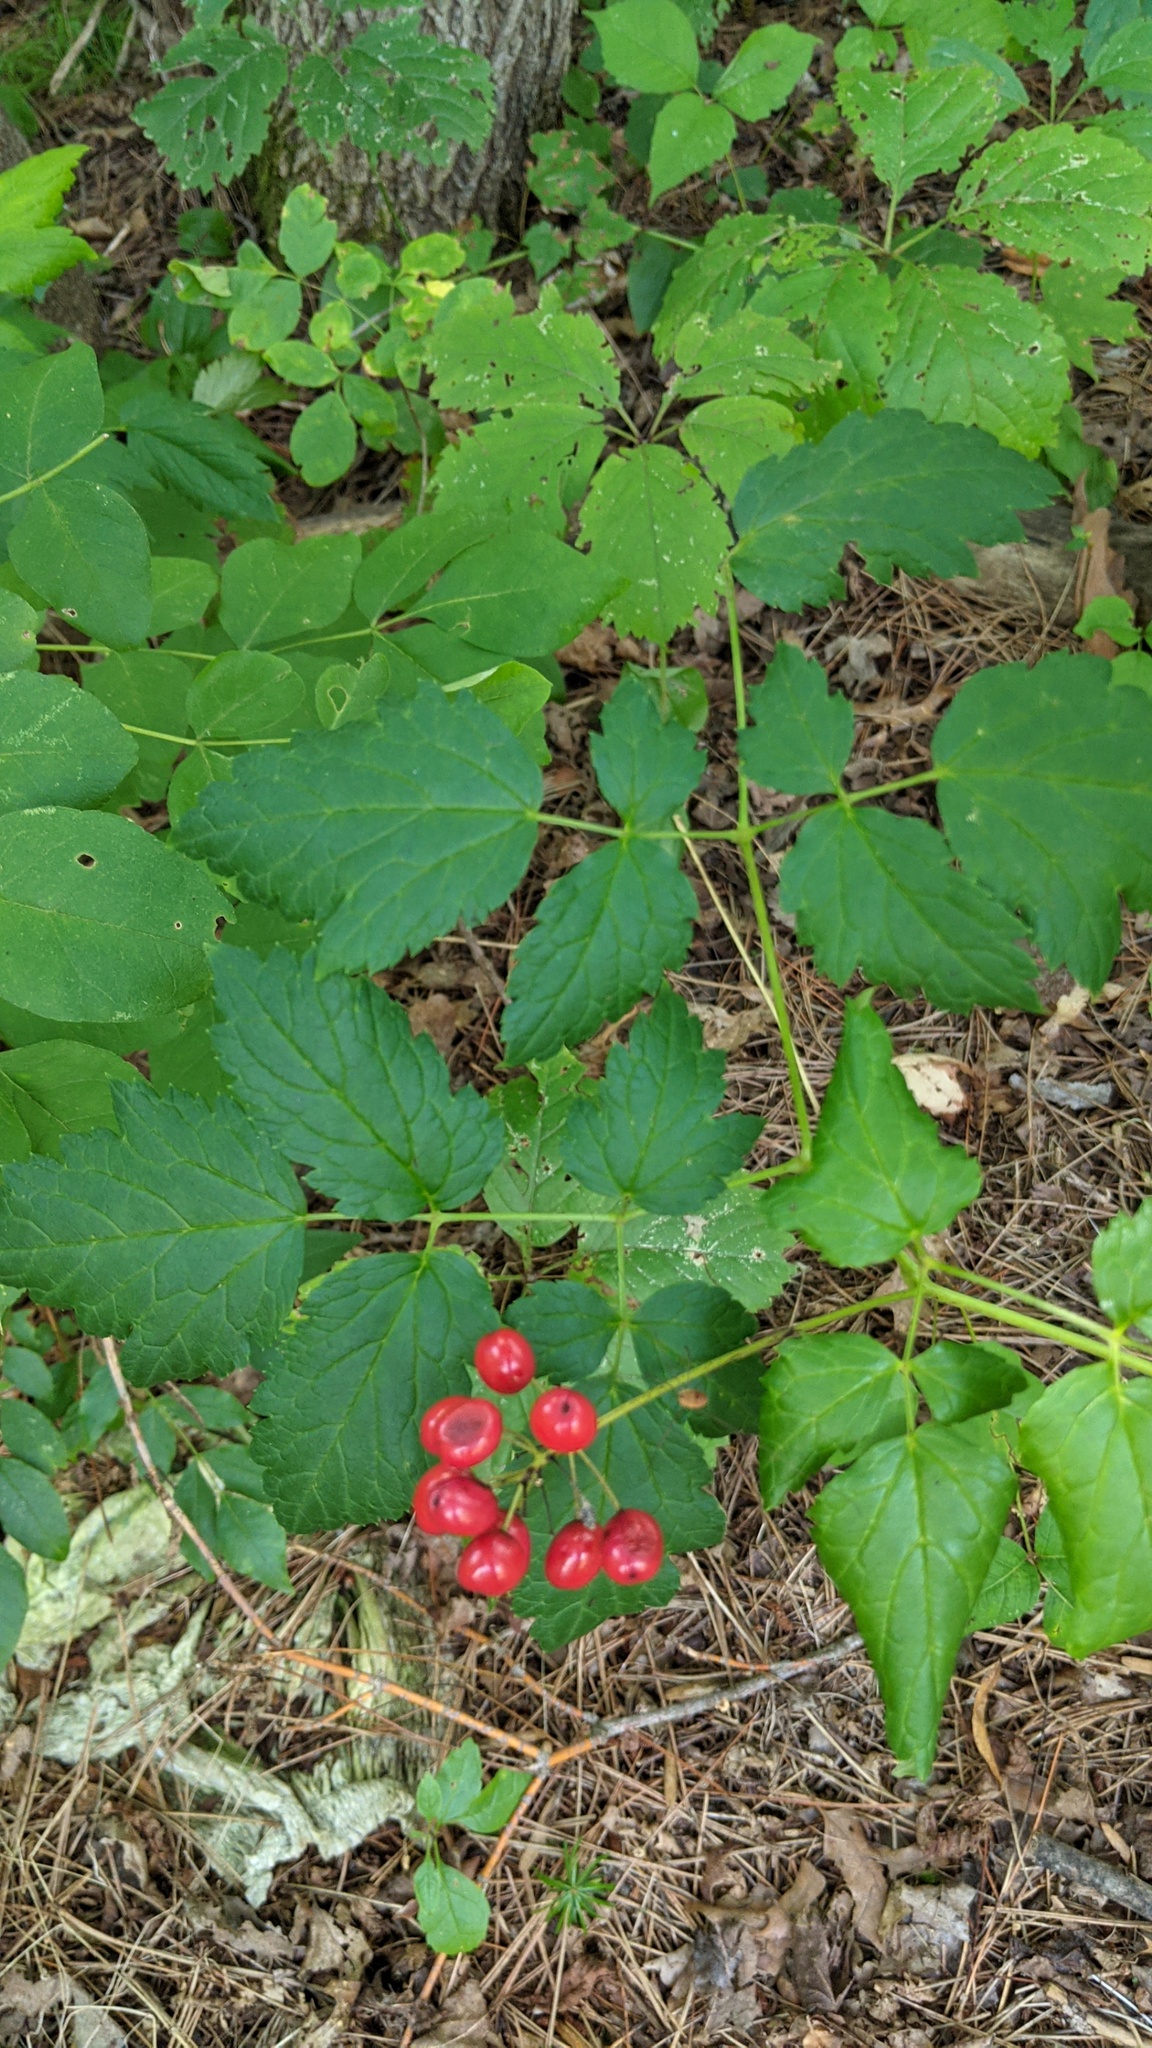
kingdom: Plantae
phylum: Tracheophyta
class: Magnoliopsida
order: Ranunculales
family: Ranunculaceae
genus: Actaea
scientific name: Actaea rubra
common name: Red baneberry
